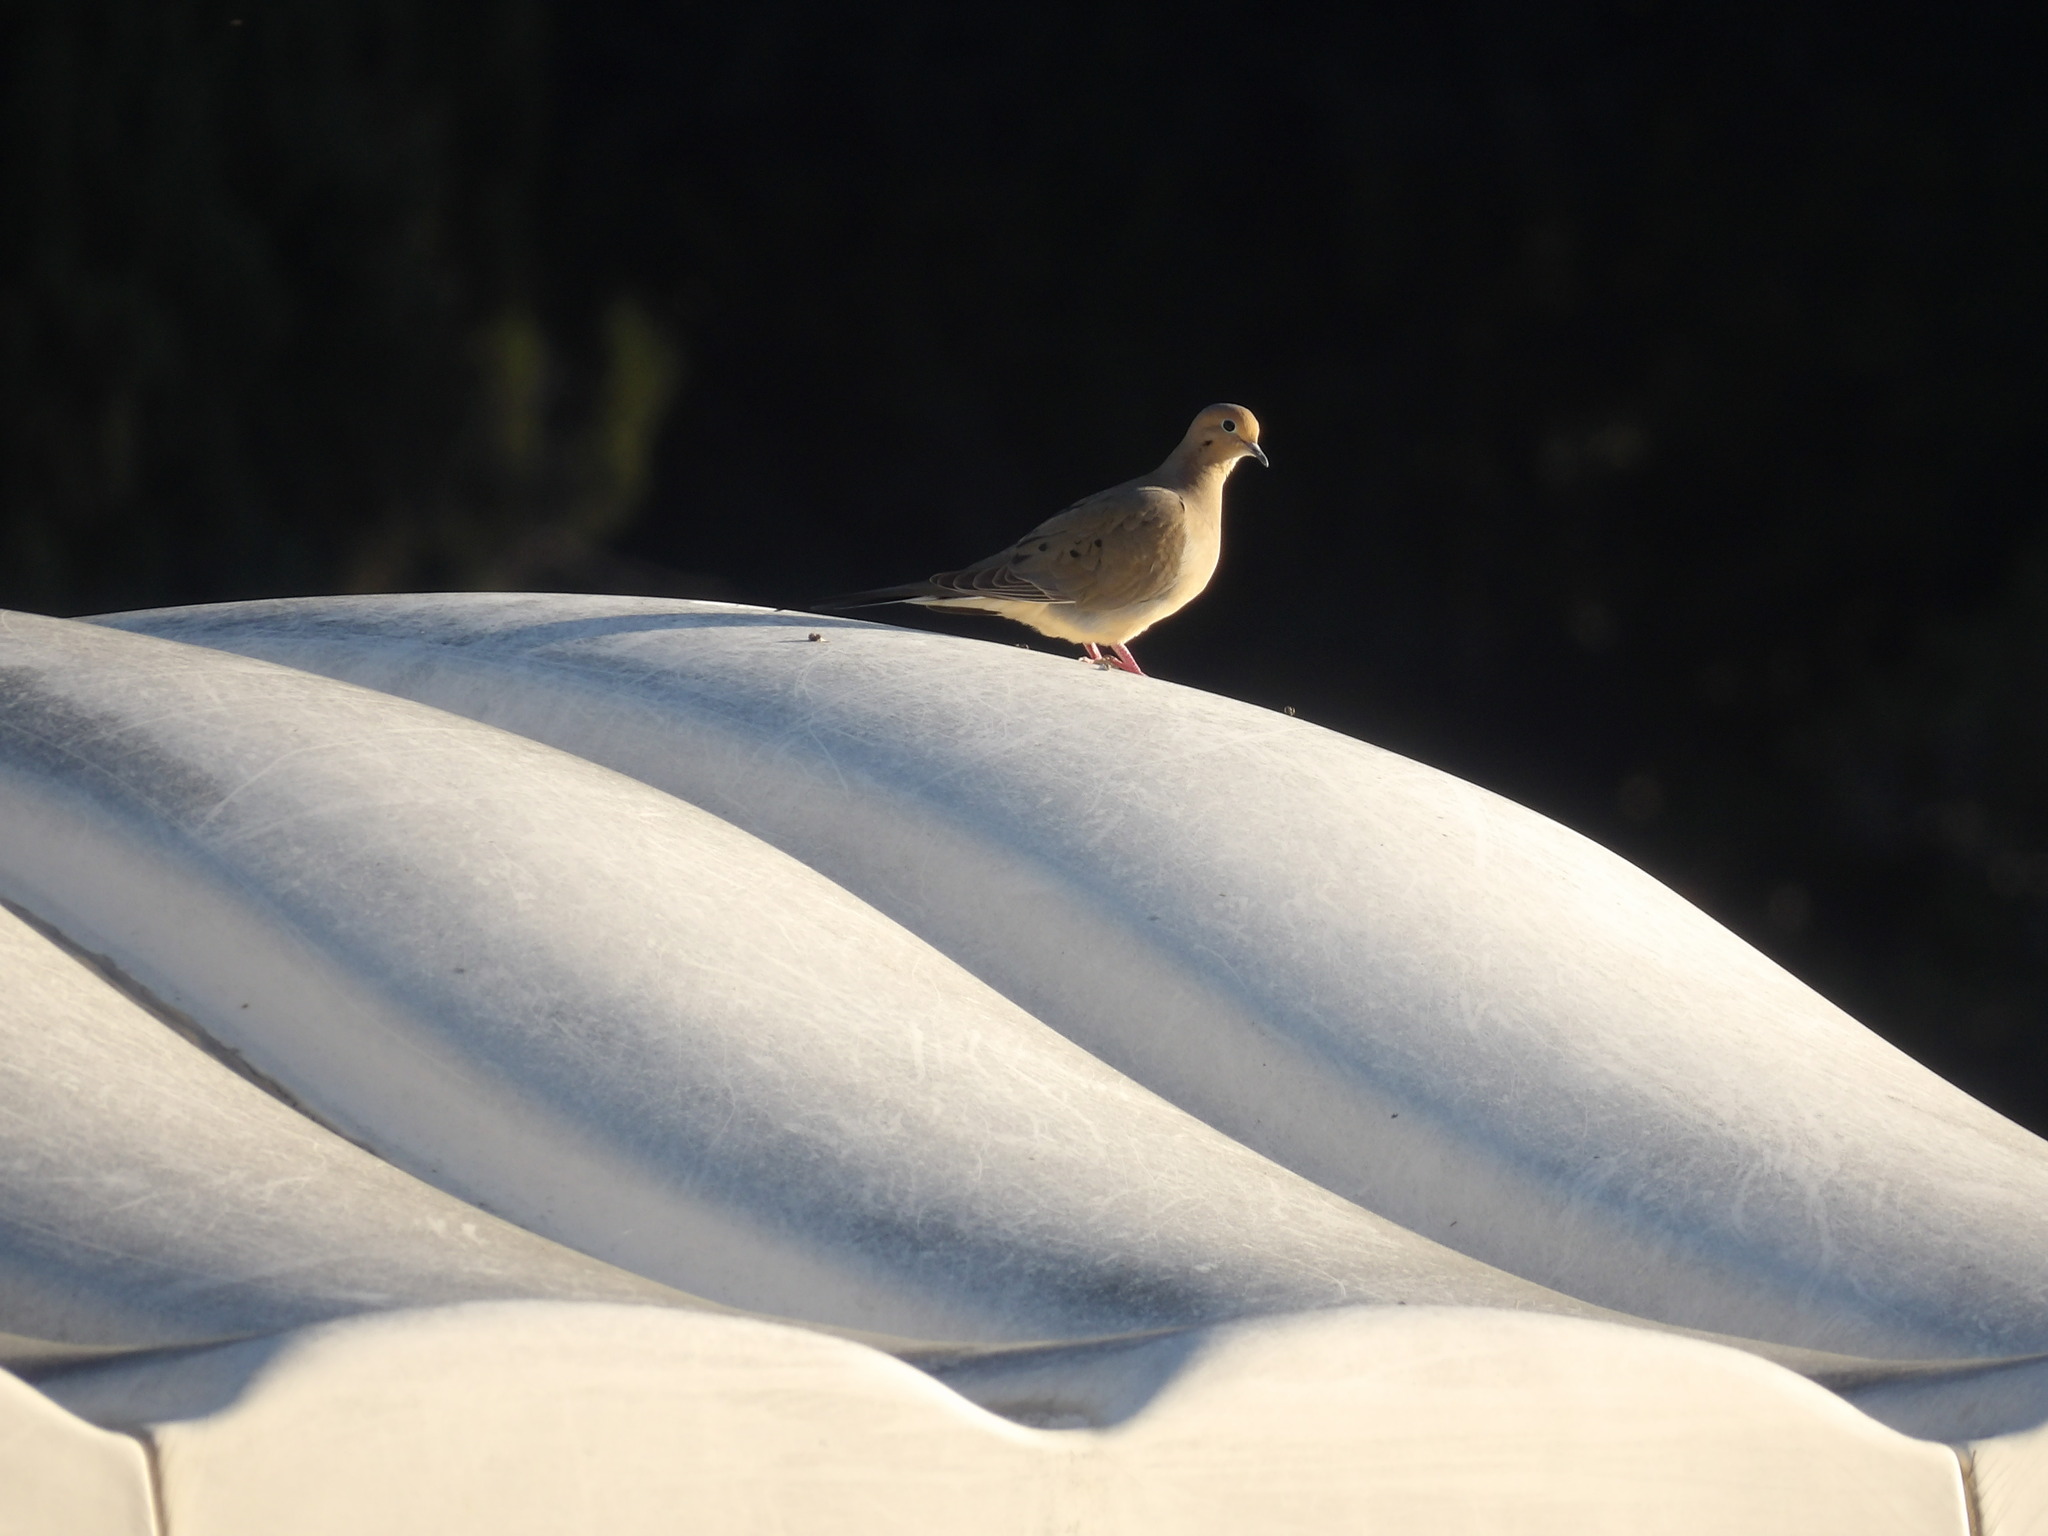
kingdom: Animalia
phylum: Chordata
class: Aves
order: Columbiformes
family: Columbidae
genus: Zenaida
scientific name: Zenaida macroura
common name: Mourning dove
